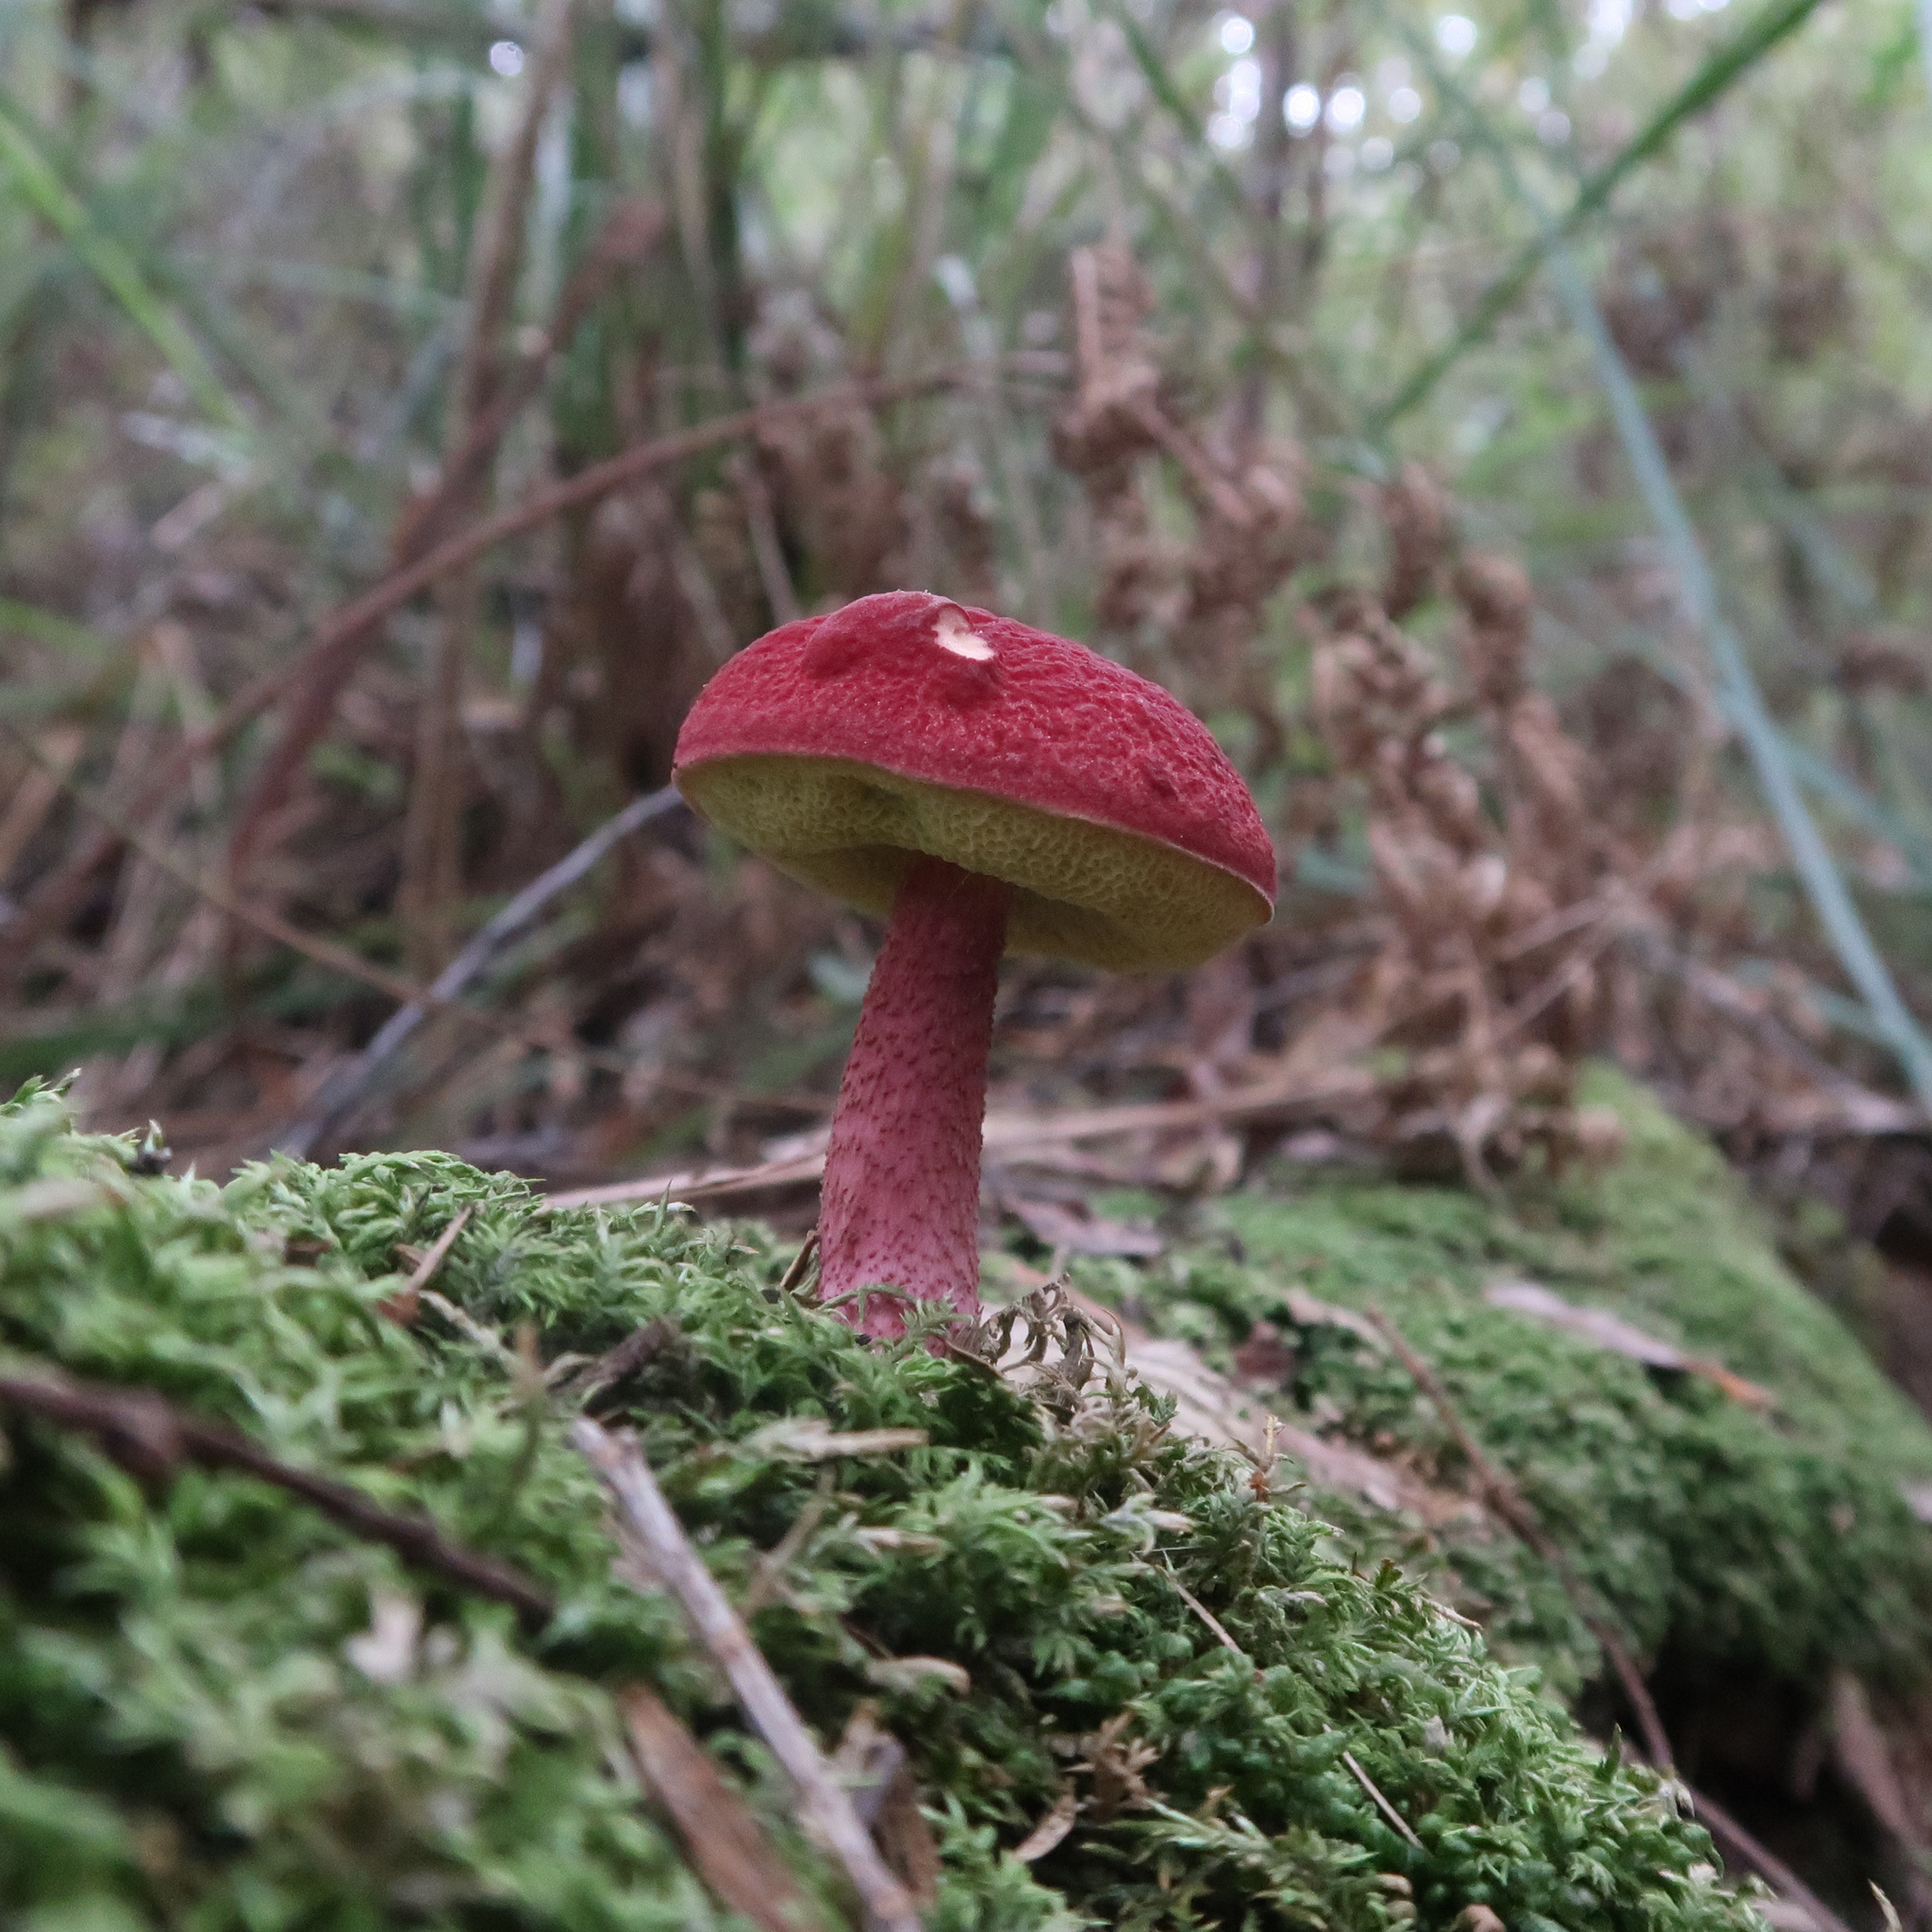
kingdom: Fungi
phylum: Basidiomycota
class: Agaricomycetes
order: Boletales
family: Boletaceae
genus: Boletellus
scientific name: Boletellus obscurecoccineus
